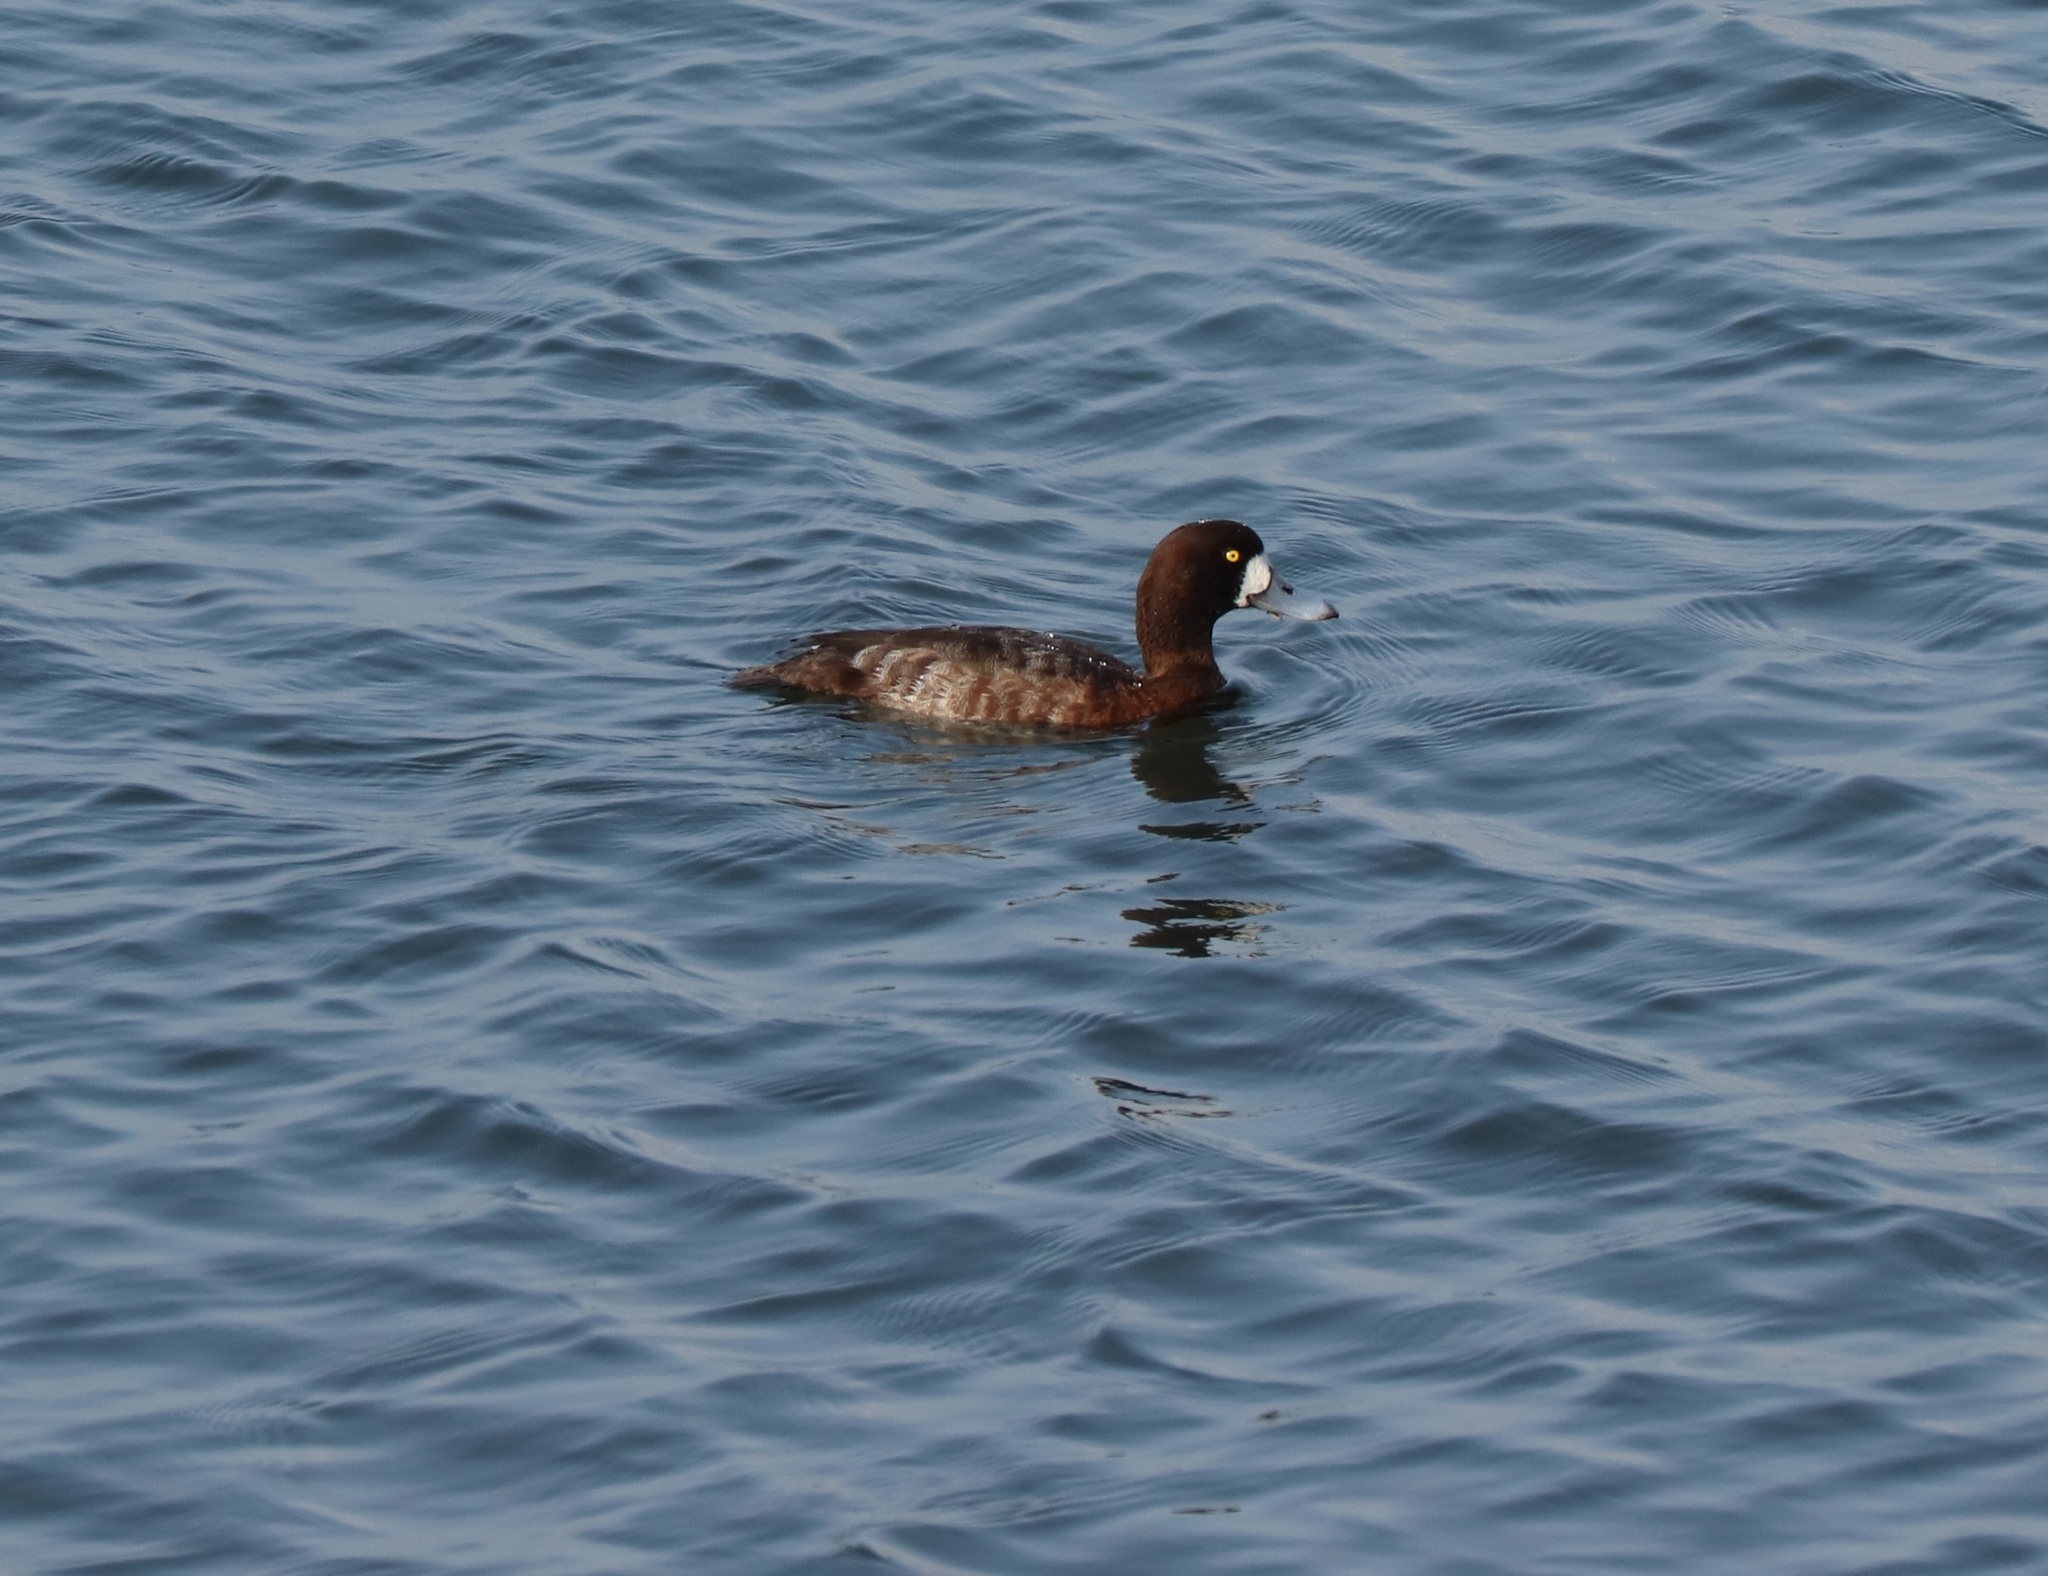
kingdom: Animalia
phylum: Chordata
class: Aves
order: Anseriformes
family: Anatidae
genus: Aythya
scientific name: Aythya marila
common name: Greater scaup
